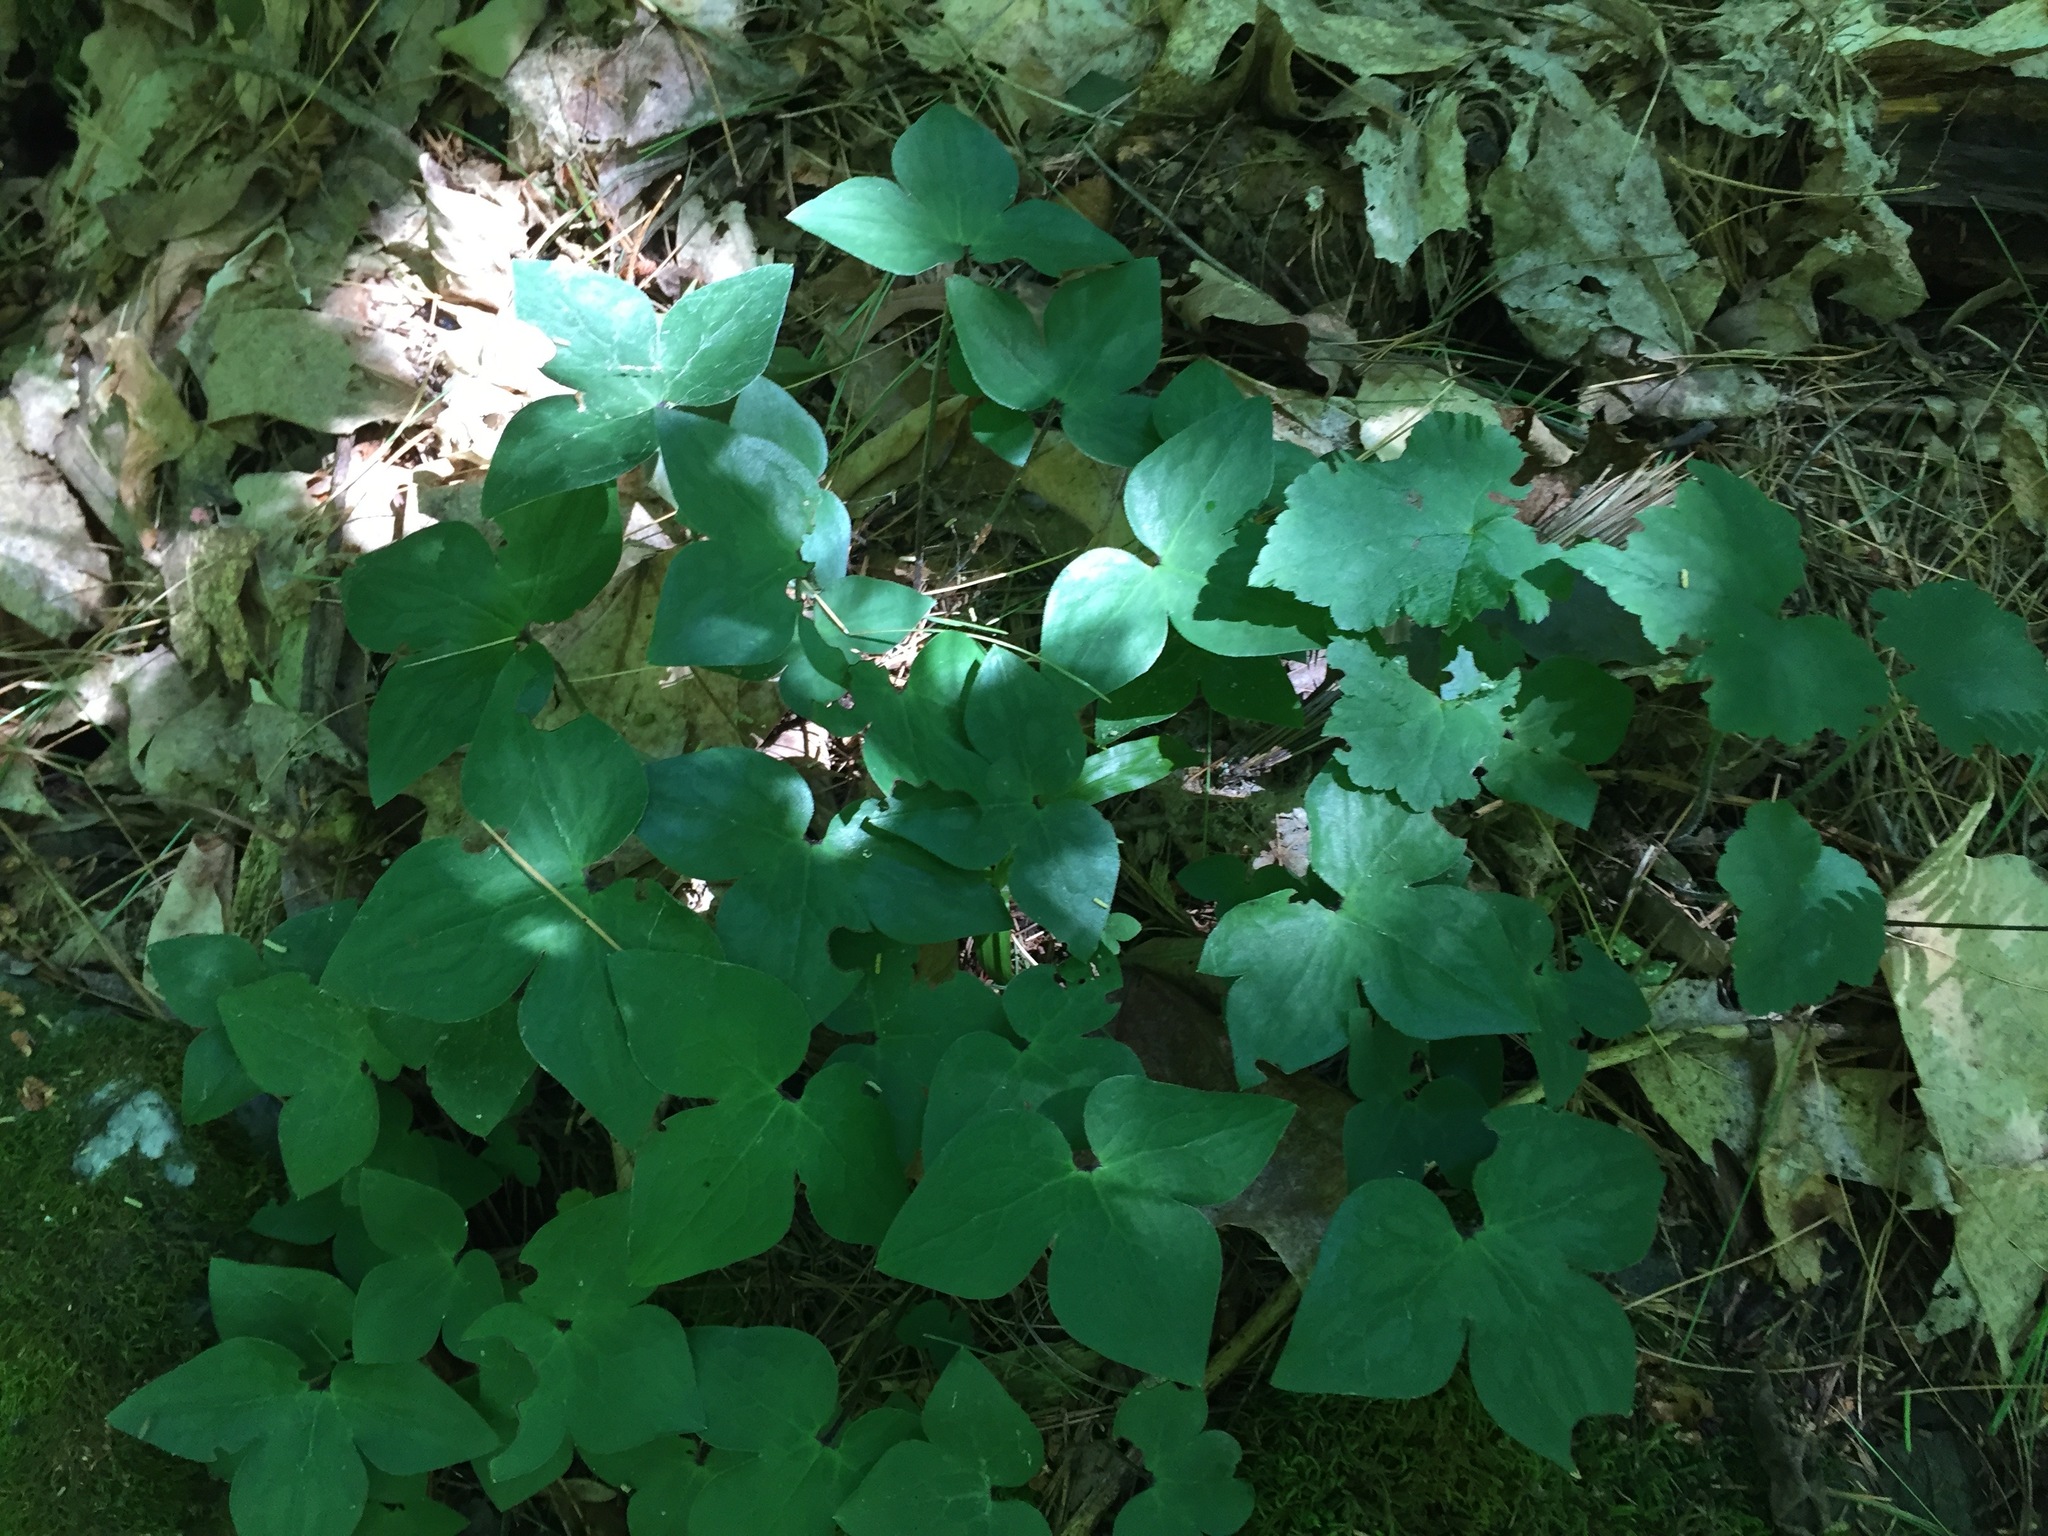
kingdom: Plantae
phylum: Tracheophyta
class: Magnoliopsida
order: Ranunculales
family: Ranunculaceae
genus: Hepatica
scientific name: Hepatica acutiloba
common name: Sharp-lobed hepatica
